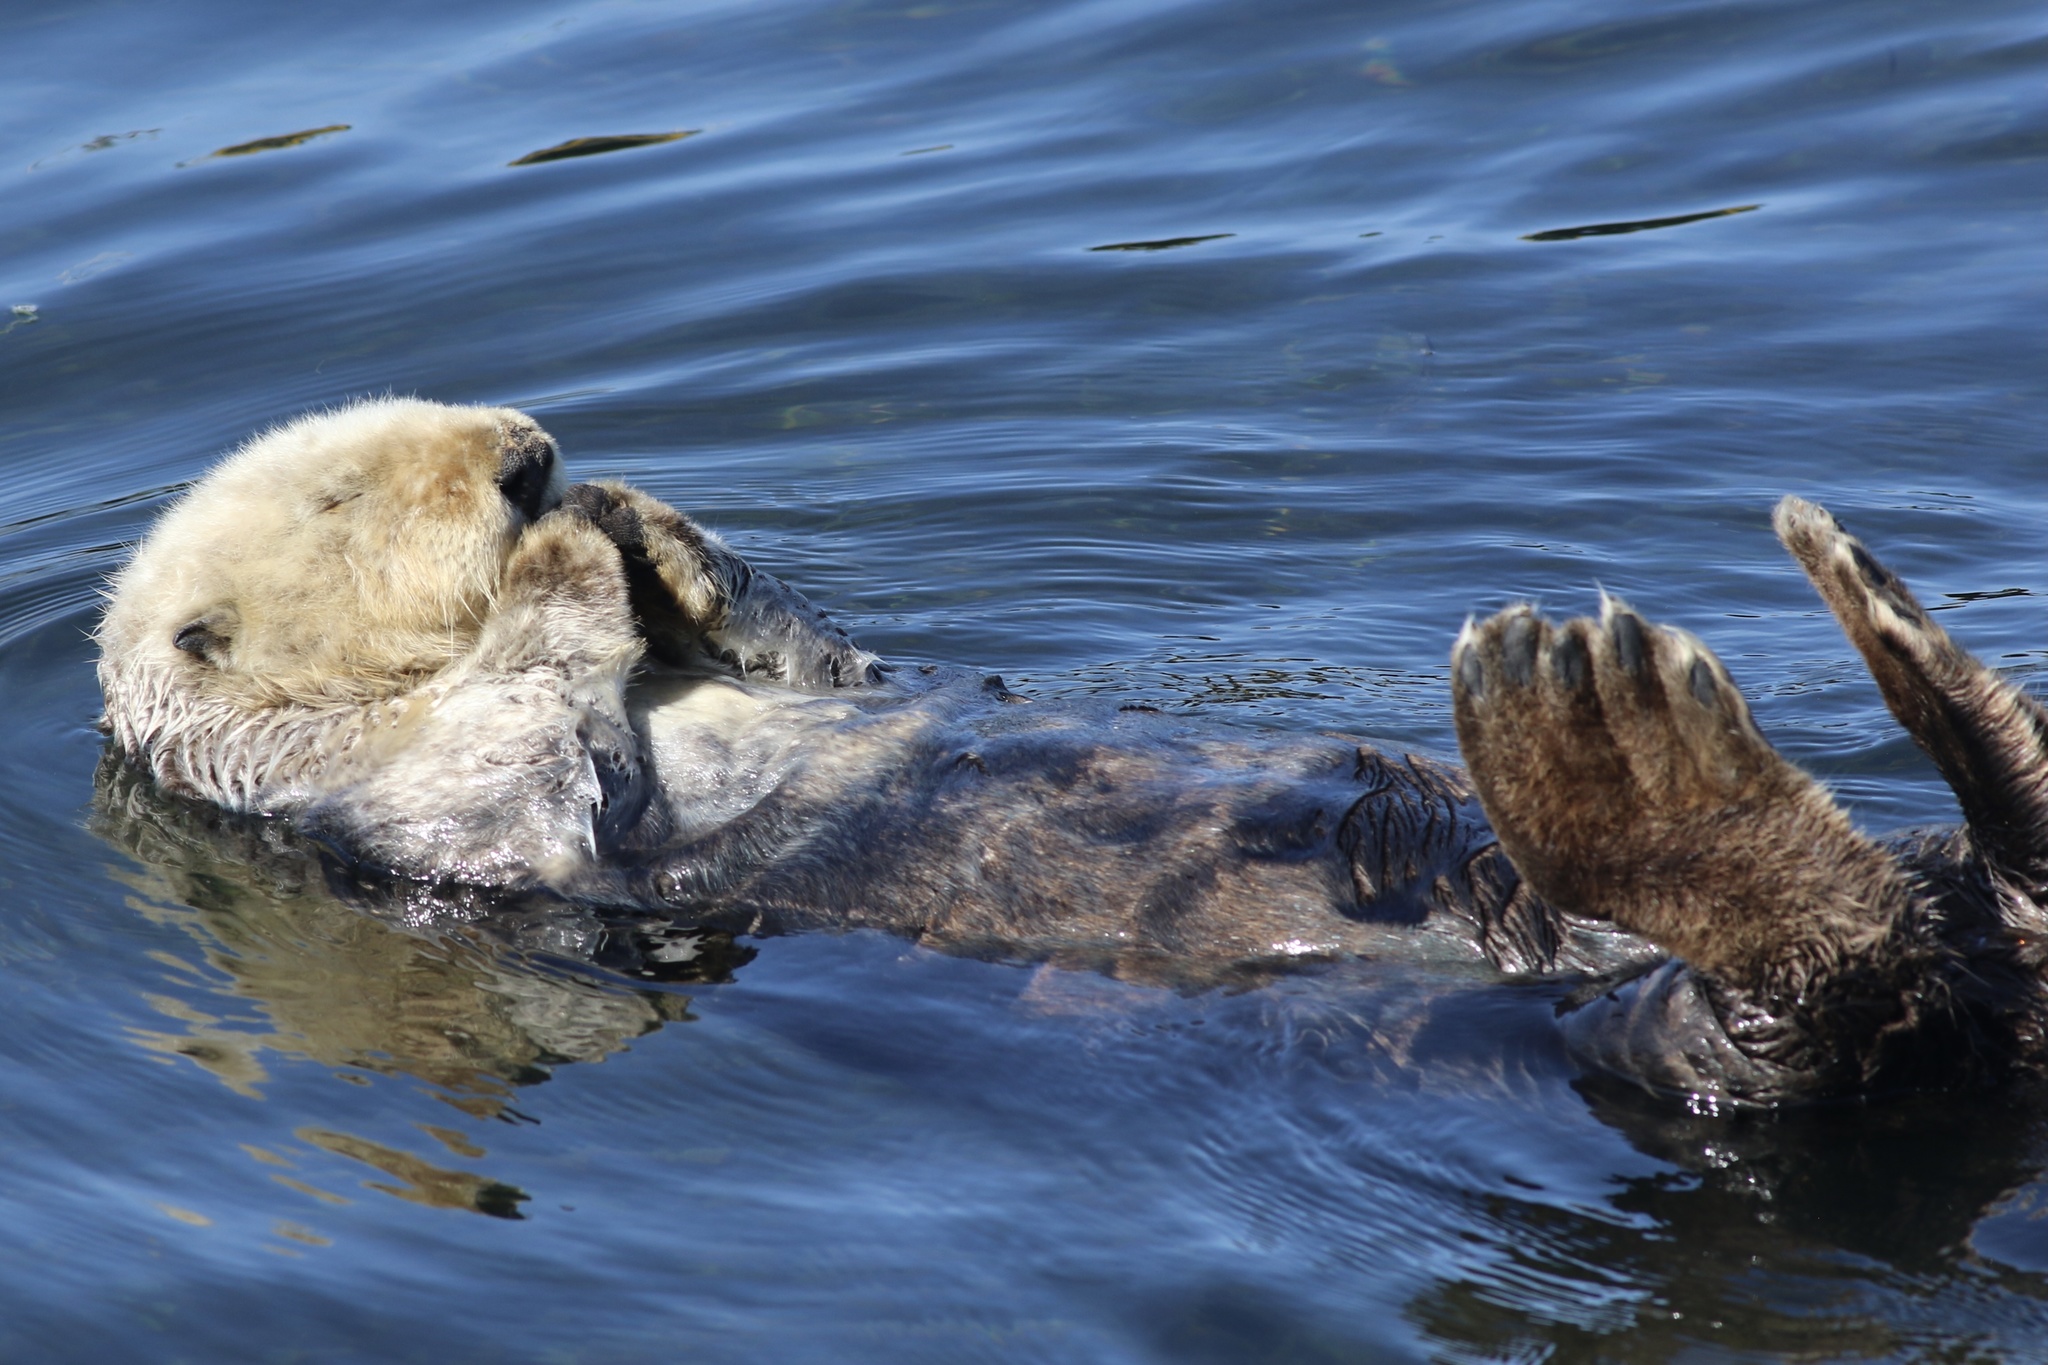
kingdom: Animalia
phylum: Chordata
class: Mammalia
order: Carnivora
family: Mustelidae
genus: Enhydra
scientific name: Enhydra lutris
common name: Sea otter
